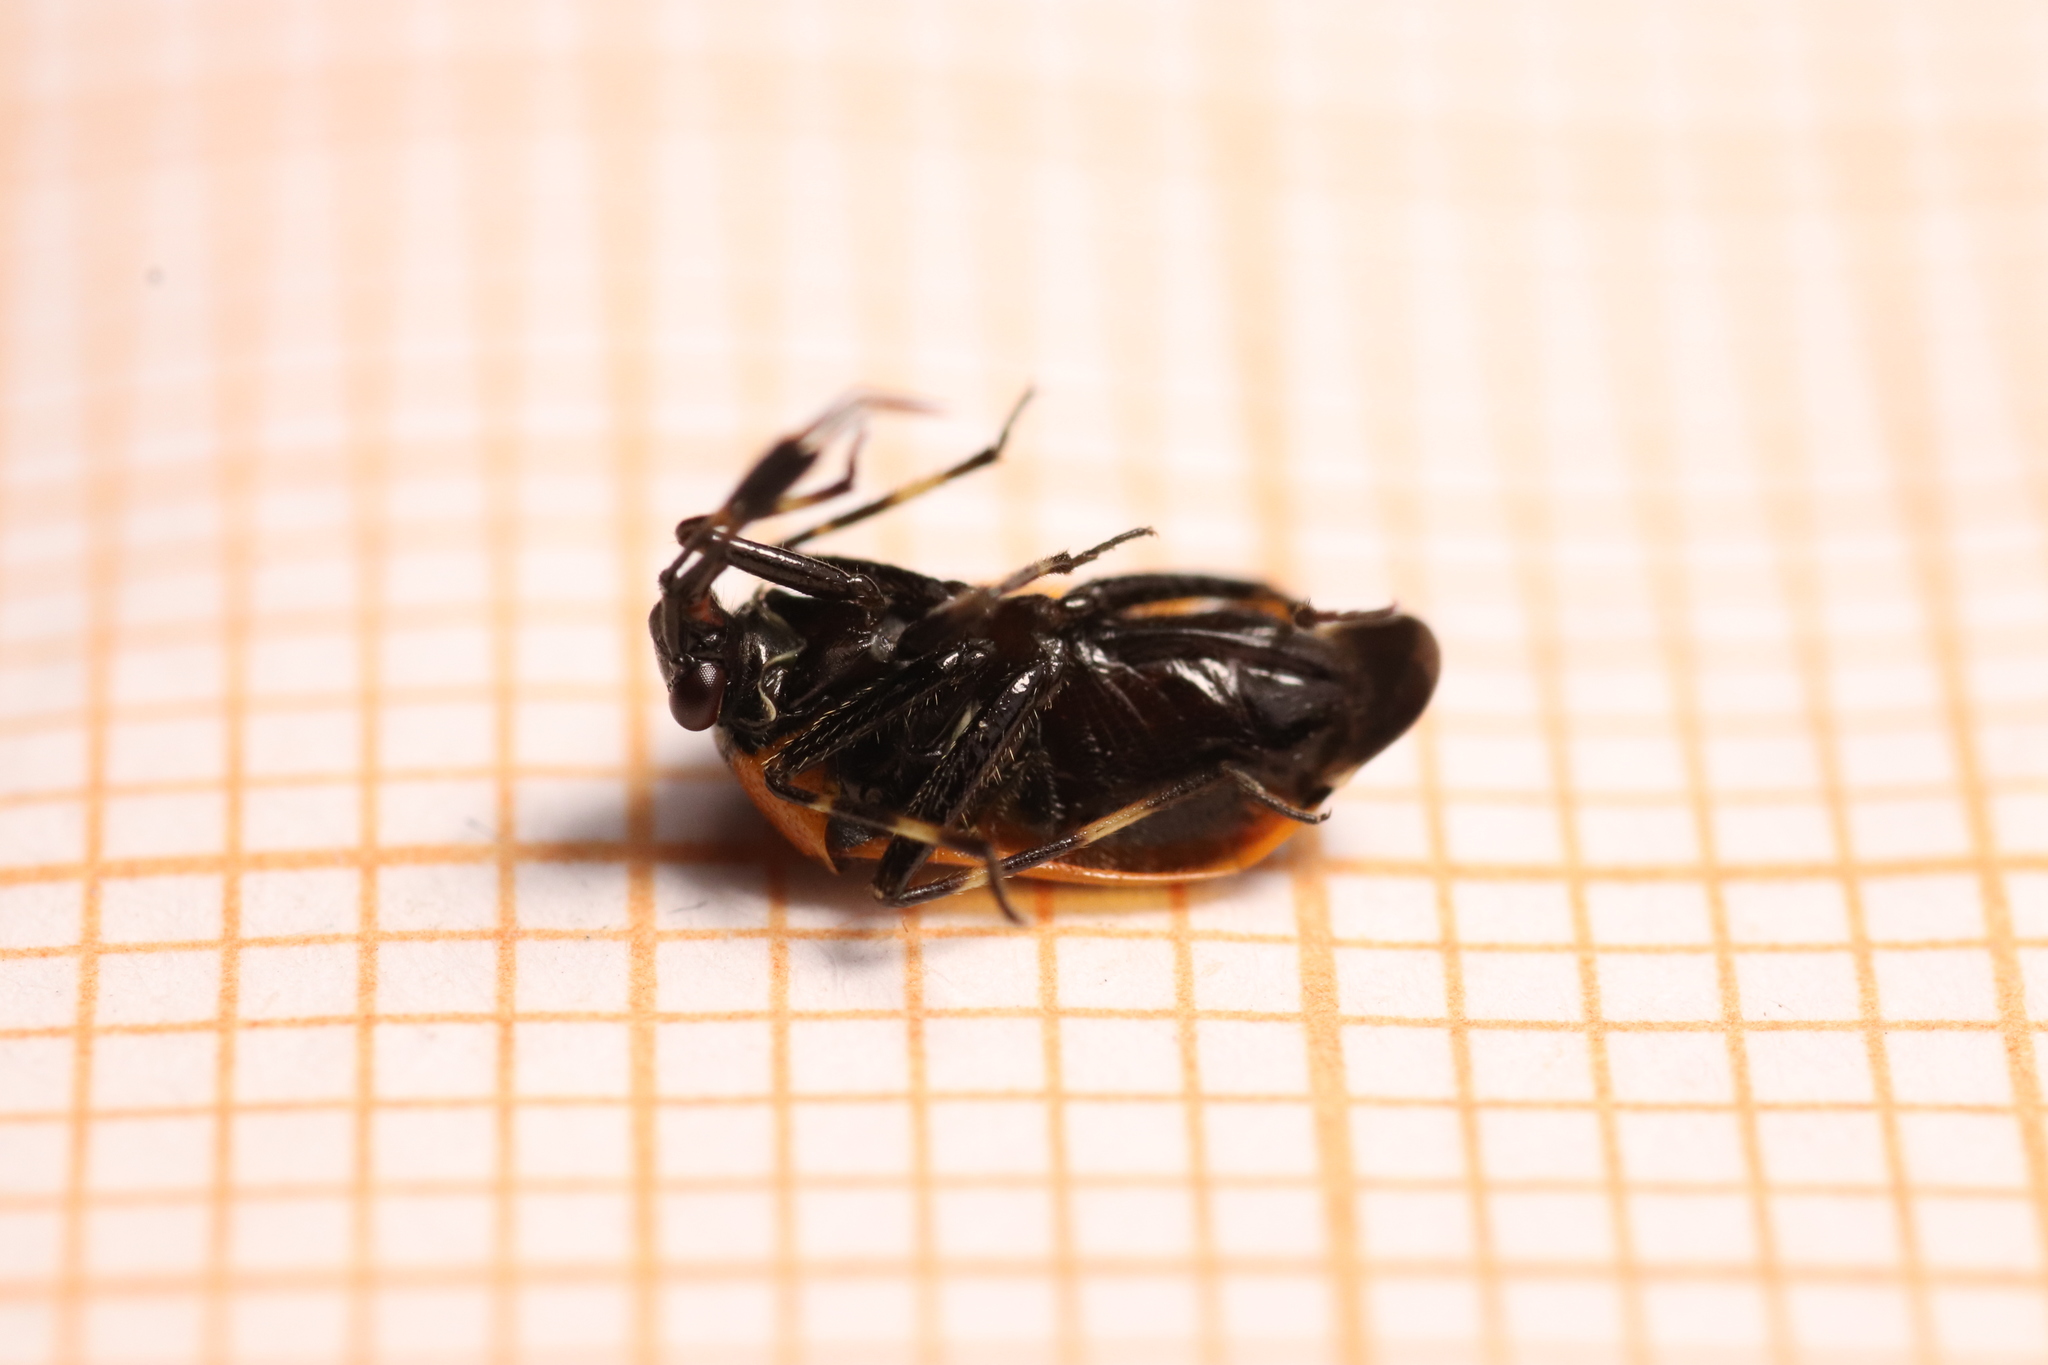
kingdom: Animalia
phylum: Arthropoda
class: Insecta
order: Hemiptera
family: Miridae
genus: Deraeocoris
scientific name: Deraeocoris punctum
